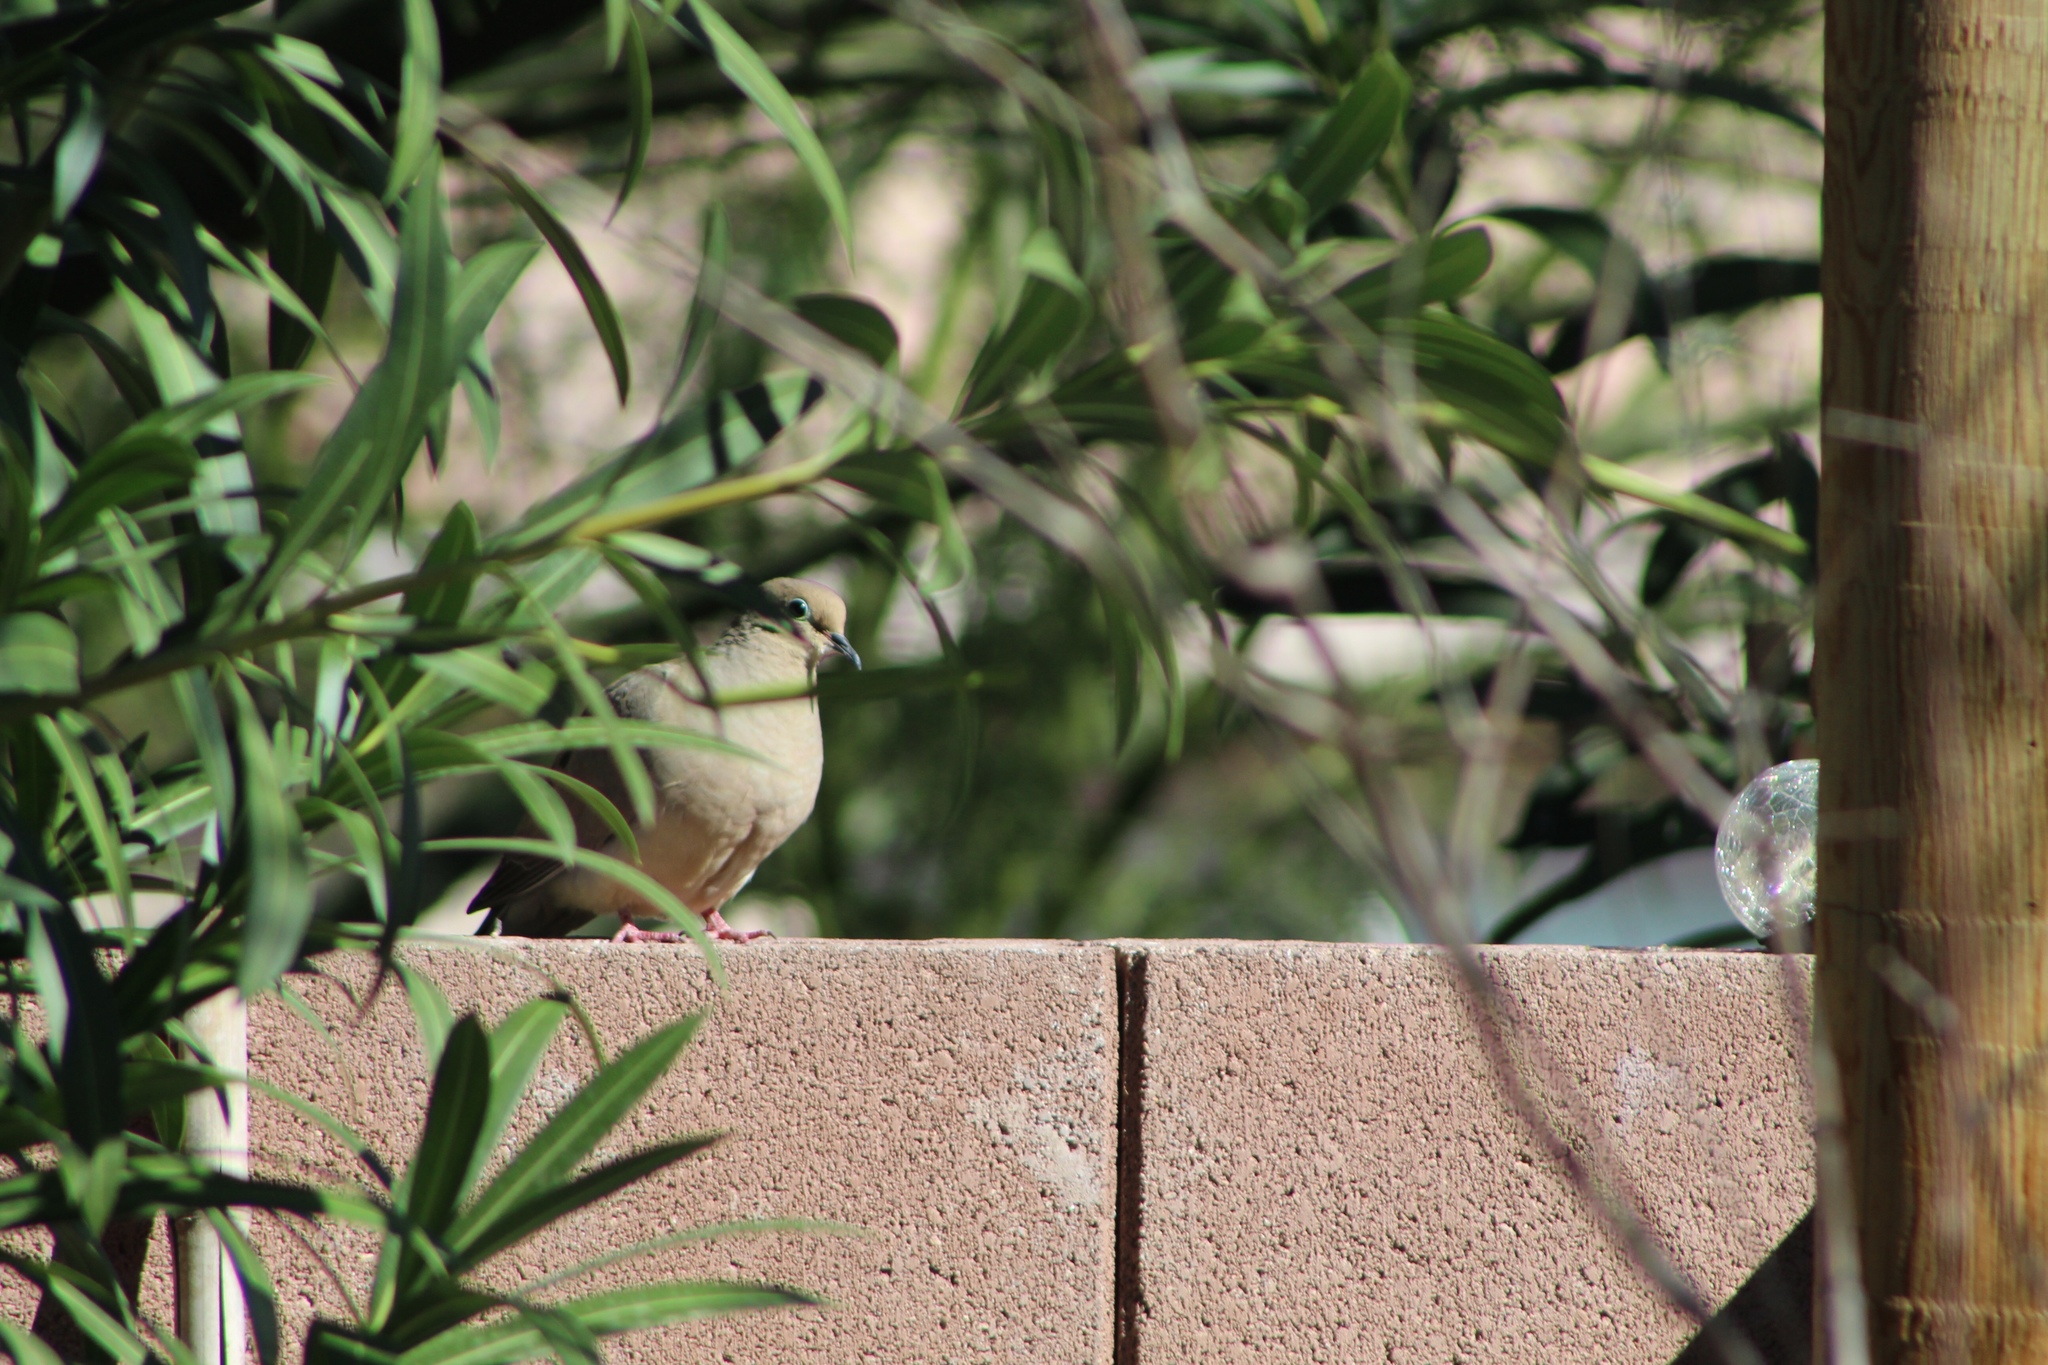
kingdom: Animalia
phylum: Chordata
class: Aves
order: Columbiformes
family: Columbidae
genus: Zenaida
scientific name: Zenaida macroura
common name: Mourning dove
